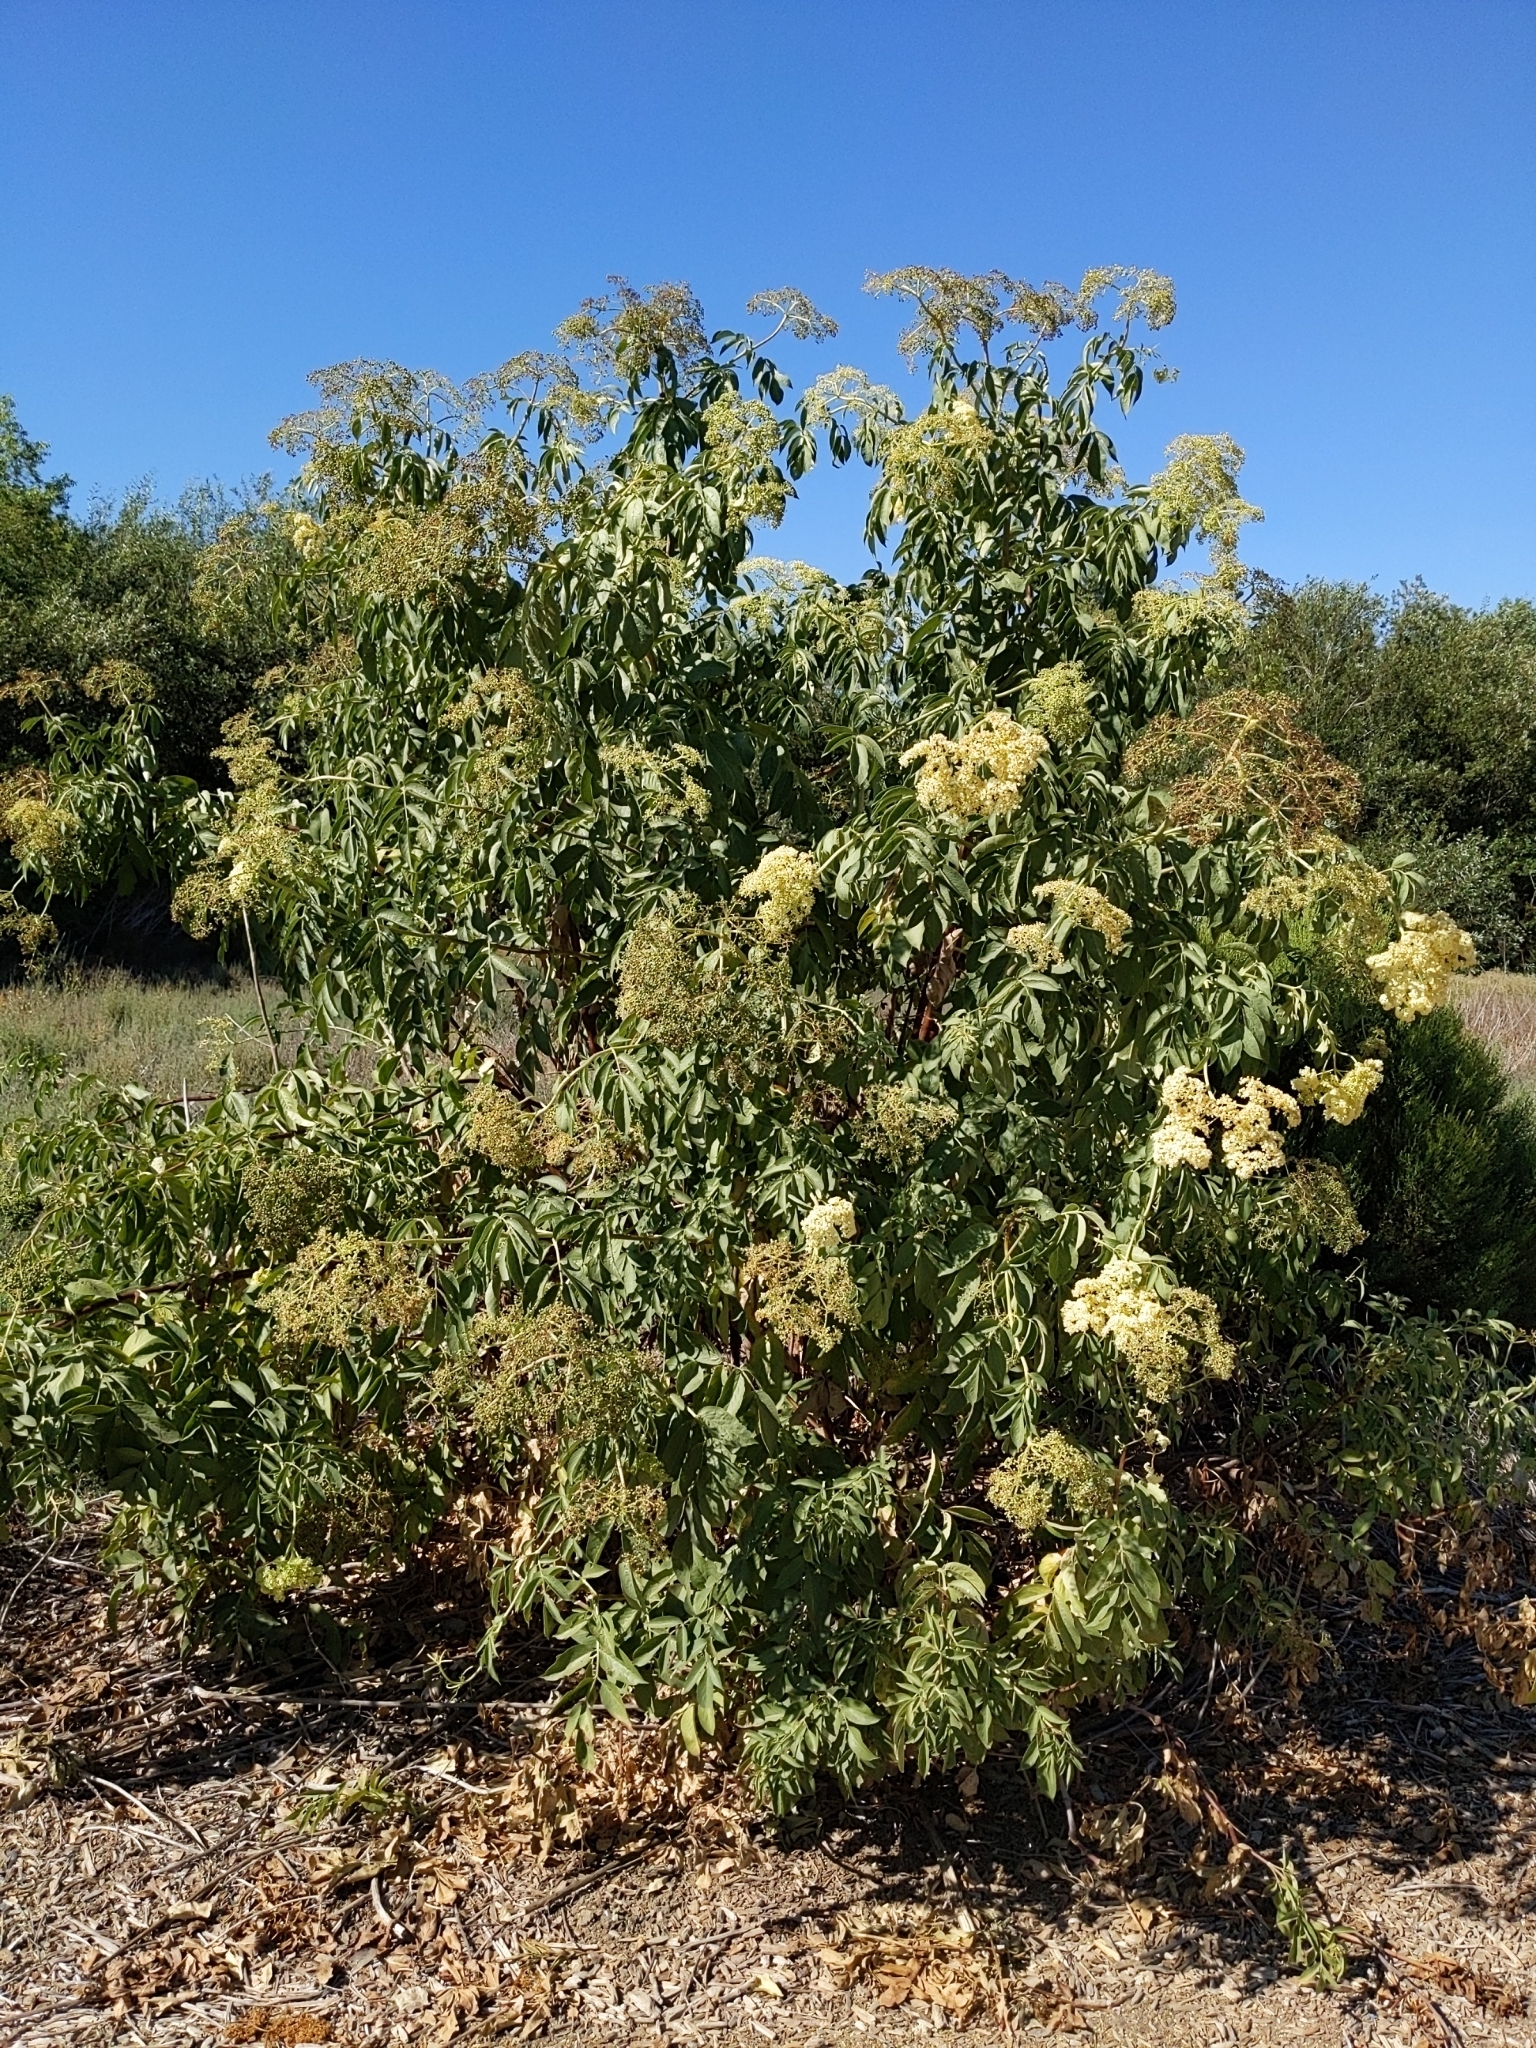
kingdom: Plantae
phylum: Tracheophyta
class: Magnoliopsida
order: Dipsacales
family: Viburnaceae
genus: Sambucus
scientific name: Sambucus cerulea
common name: Blue elder
